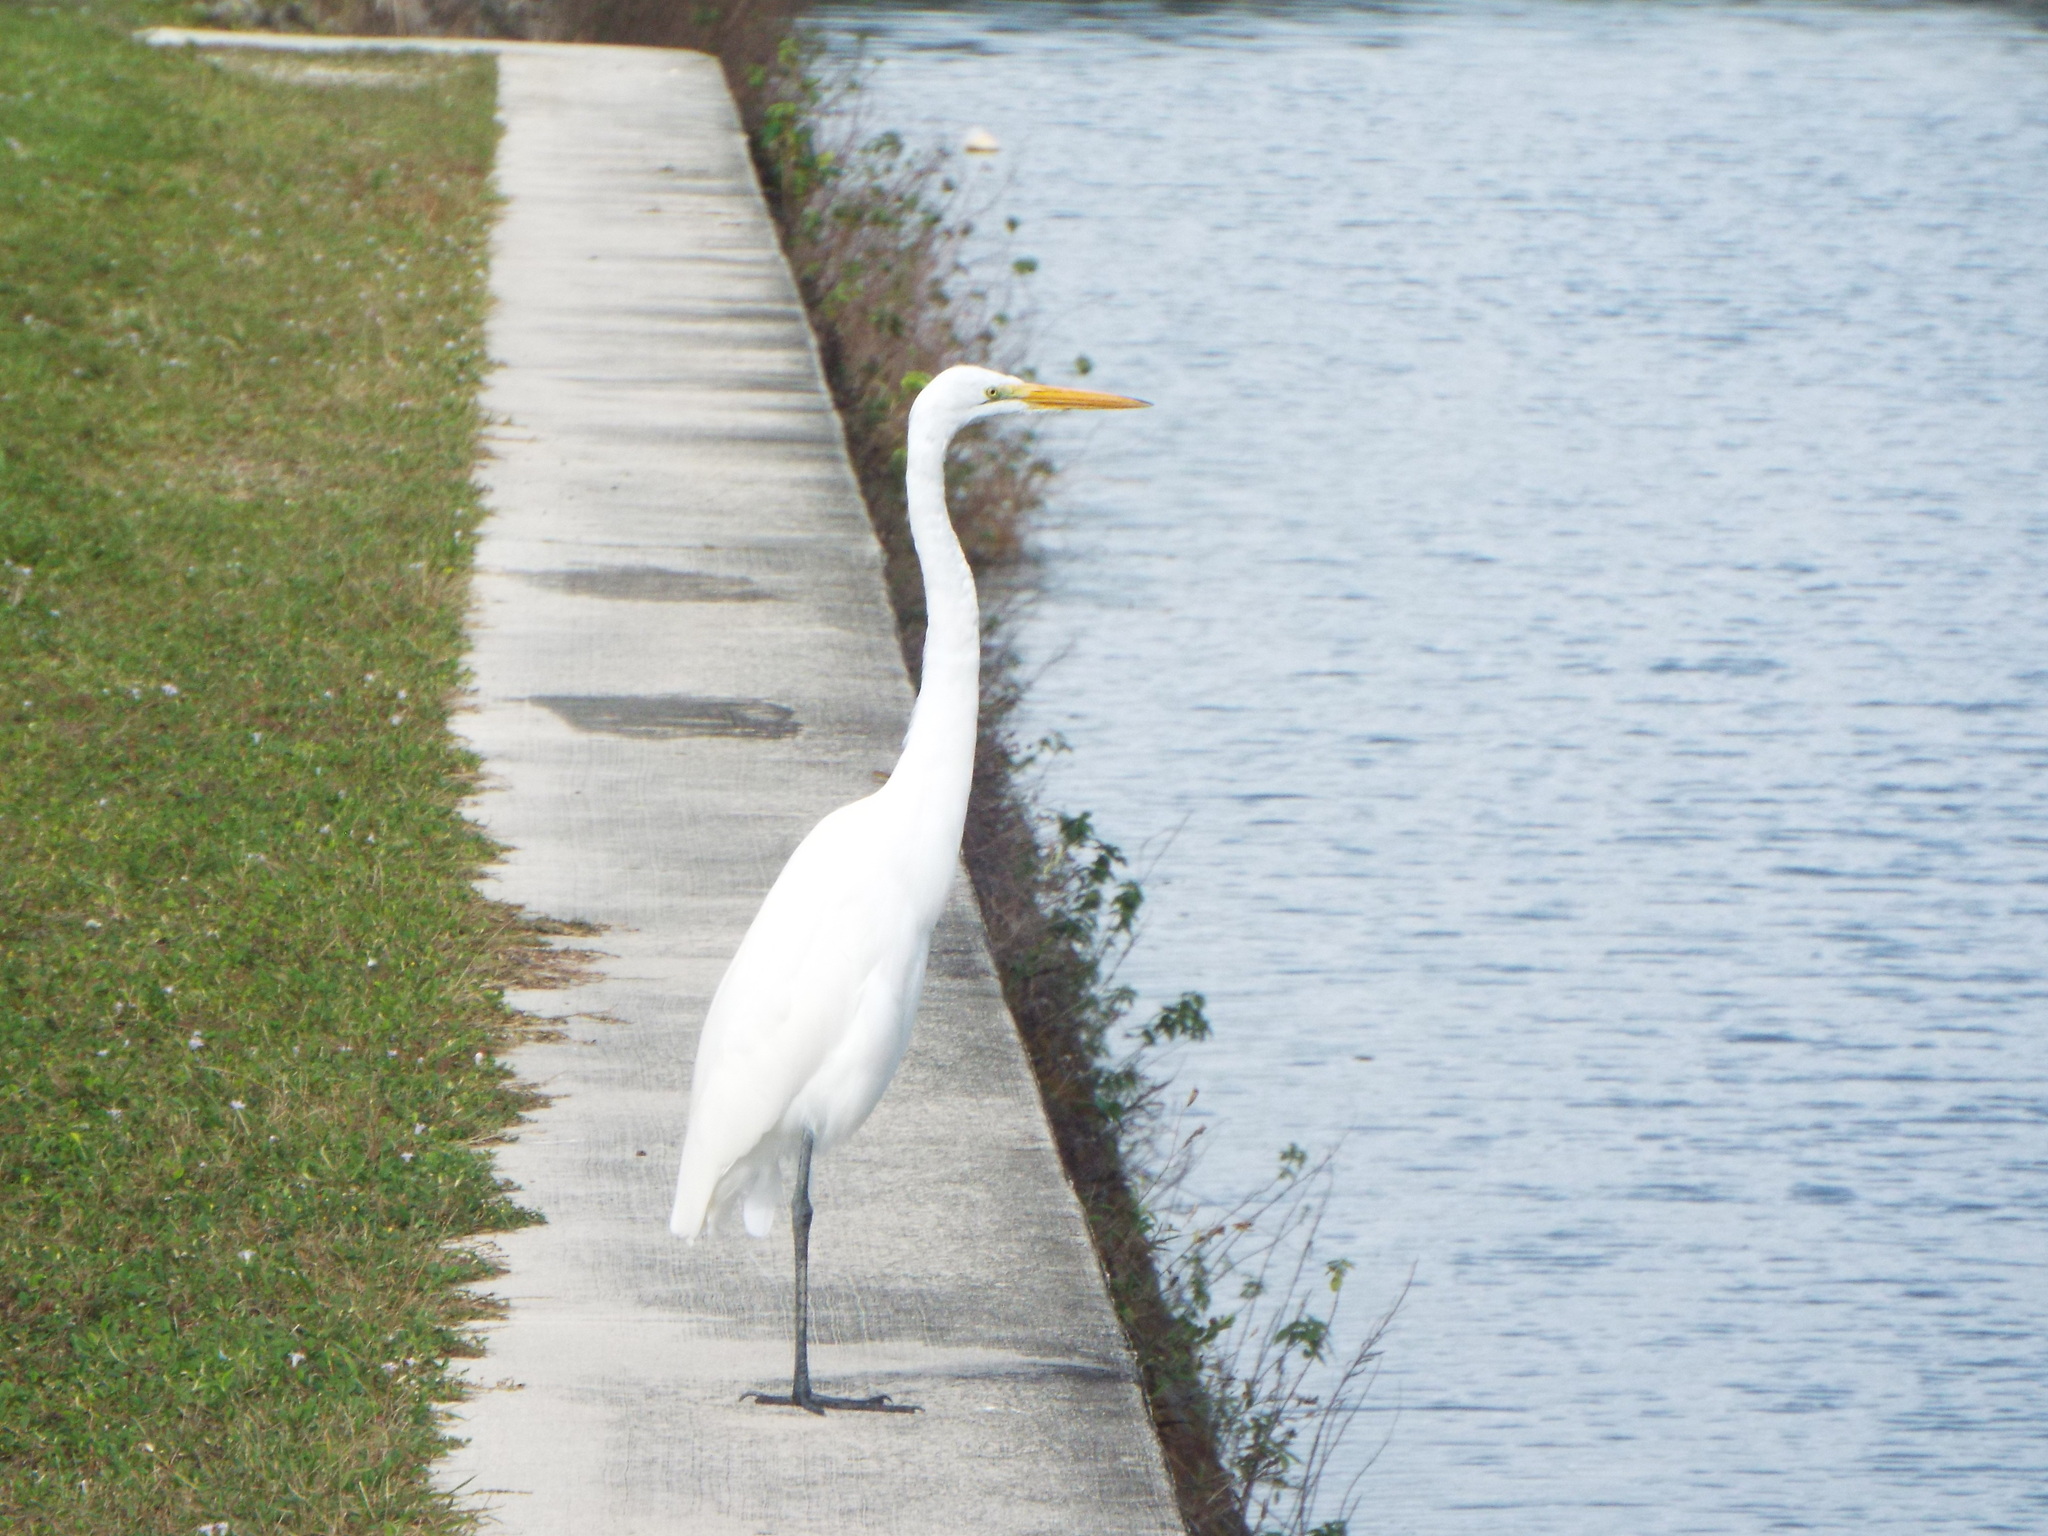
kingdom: Animalia
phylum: Chordata
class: Aves
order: Pelecaniformes
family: Ardeidae
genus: Ardea
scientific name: Ardea alba
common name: Great egret
